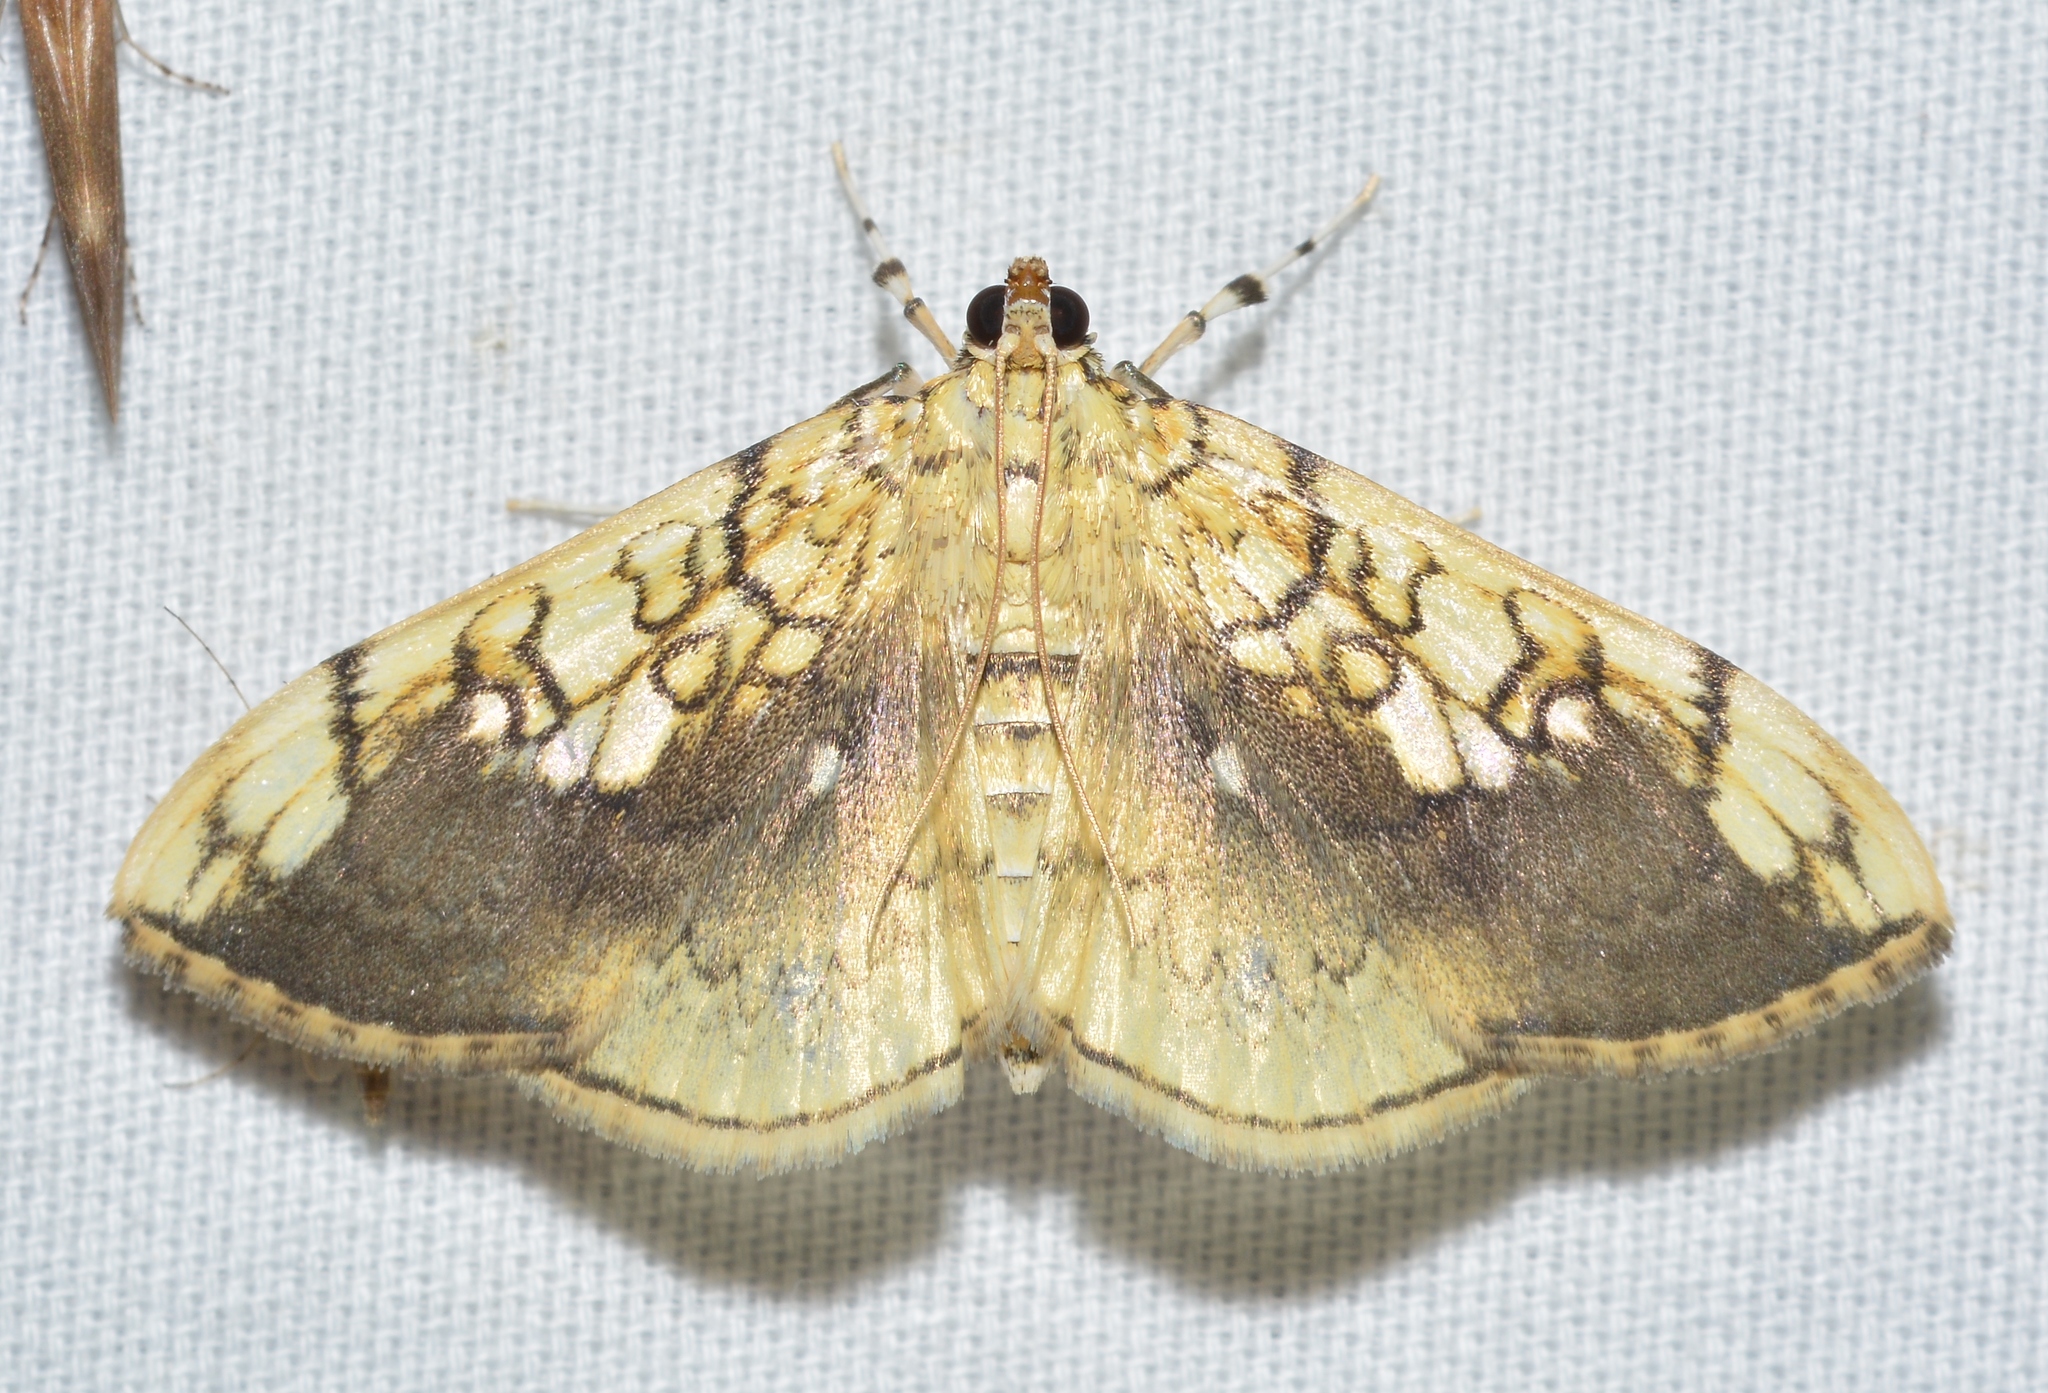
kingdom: Animalia
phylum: Arthropoda
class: Insecta
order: Lepidoptera
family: Crambidae
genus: Pantographa
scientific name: Pantographa limata
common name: Basswood leafroller moth
